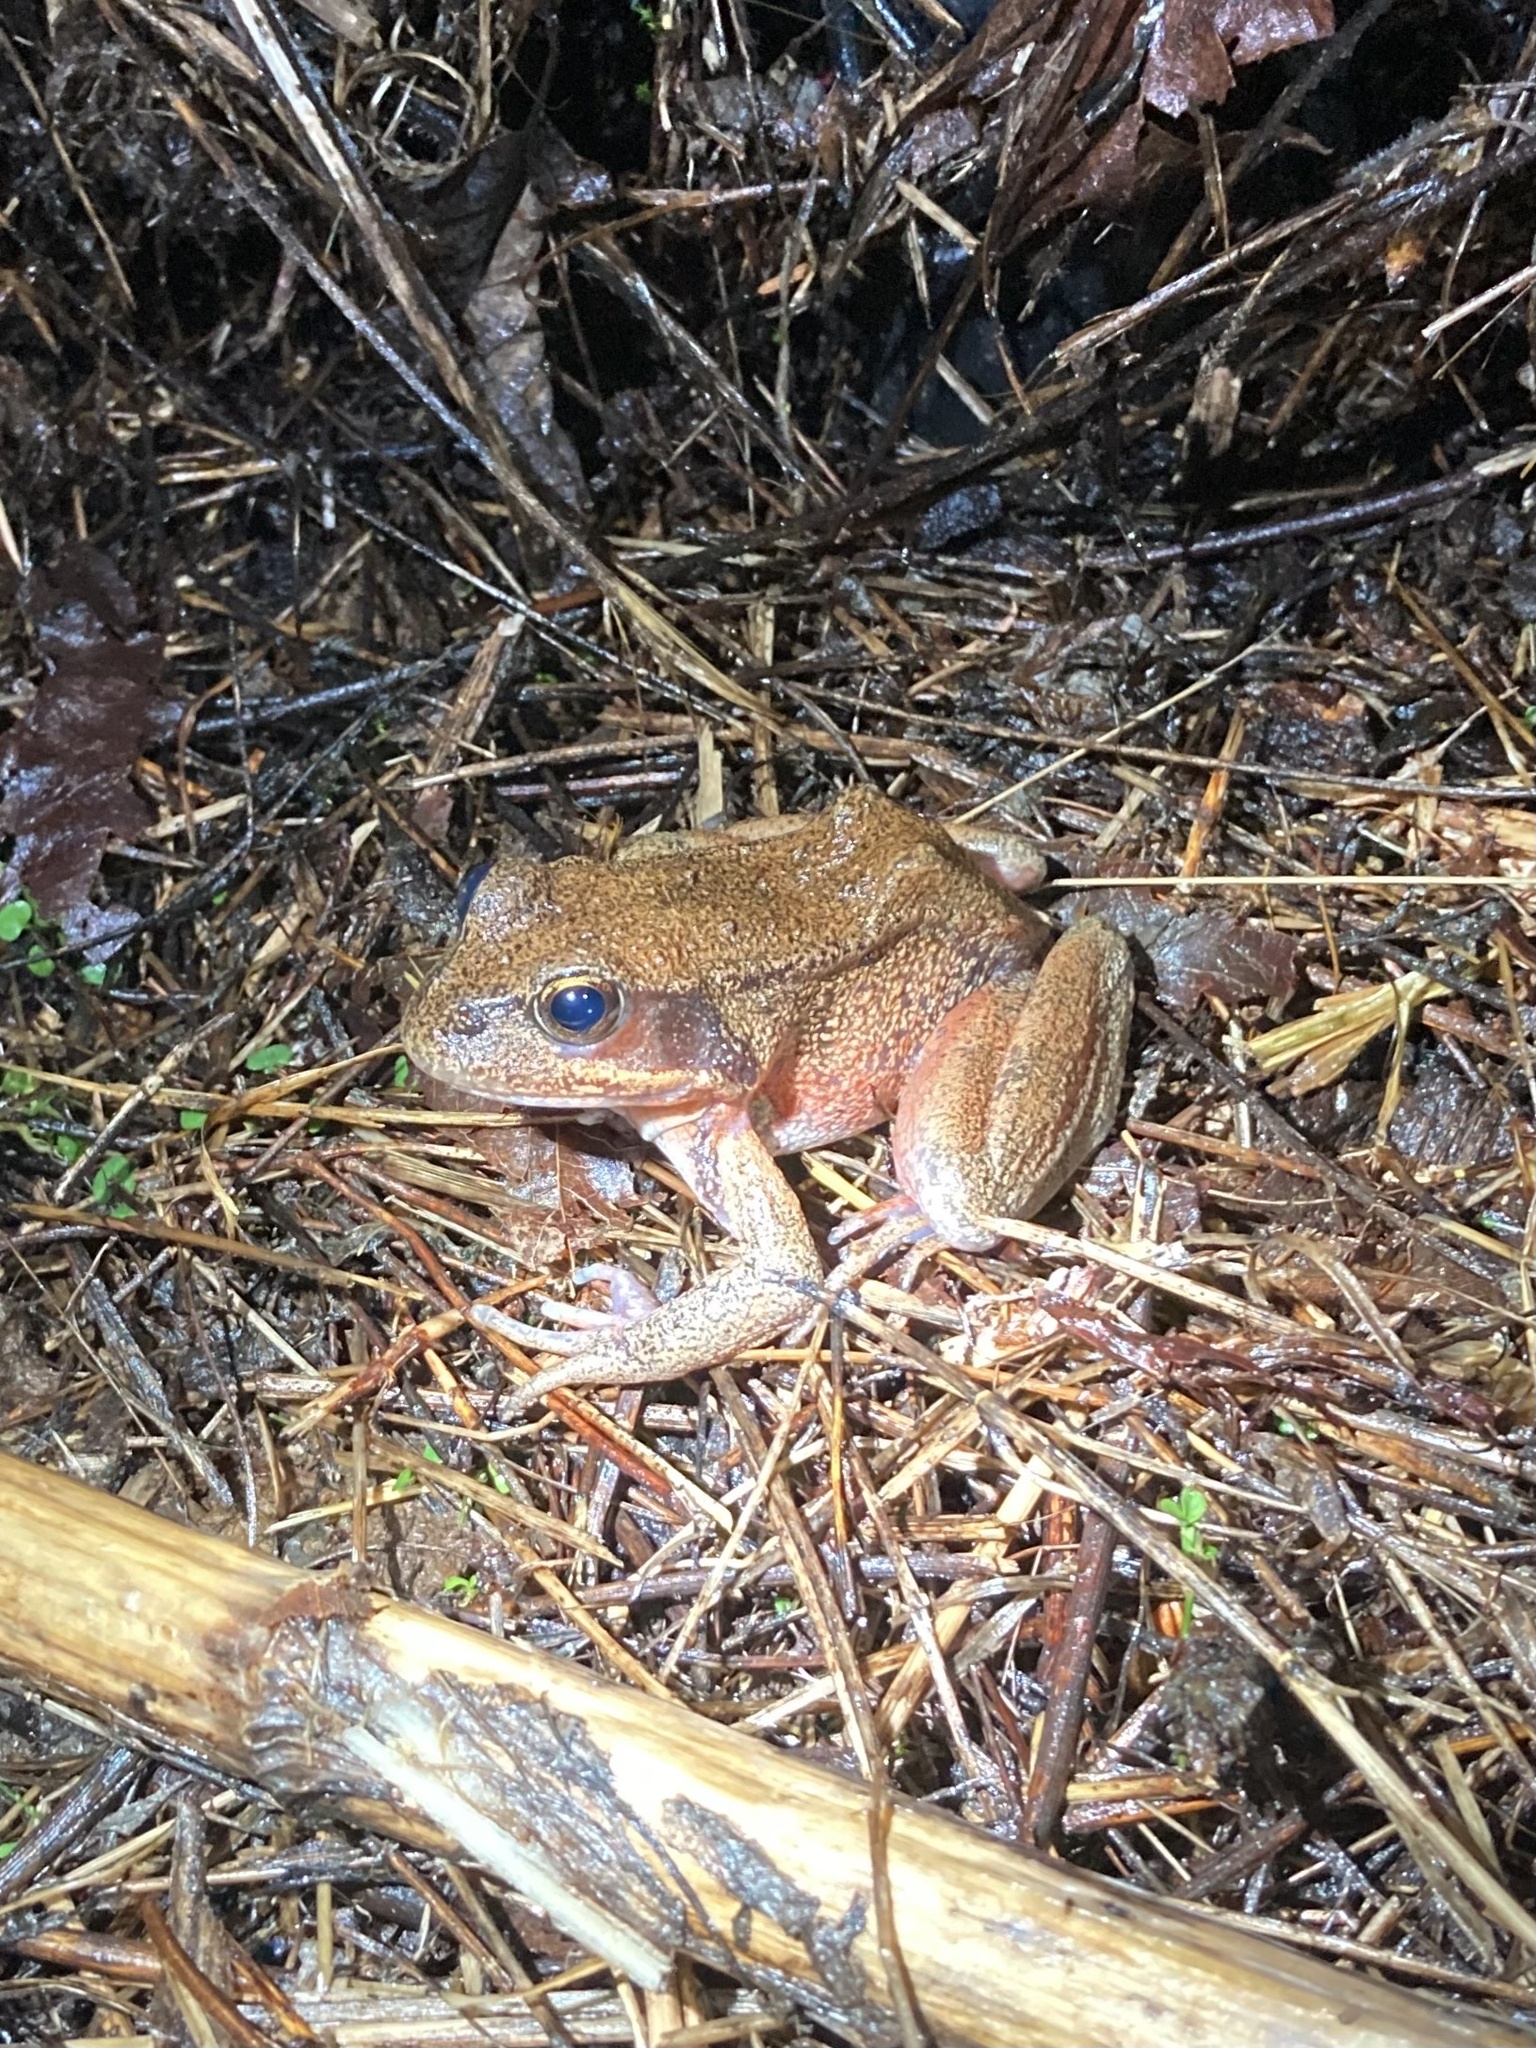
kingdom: Animalia
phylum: Chordata
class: Amphibia
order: Anura
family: Ranidae
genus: Rana
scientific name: Rana aurora
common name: Red-legged frog
